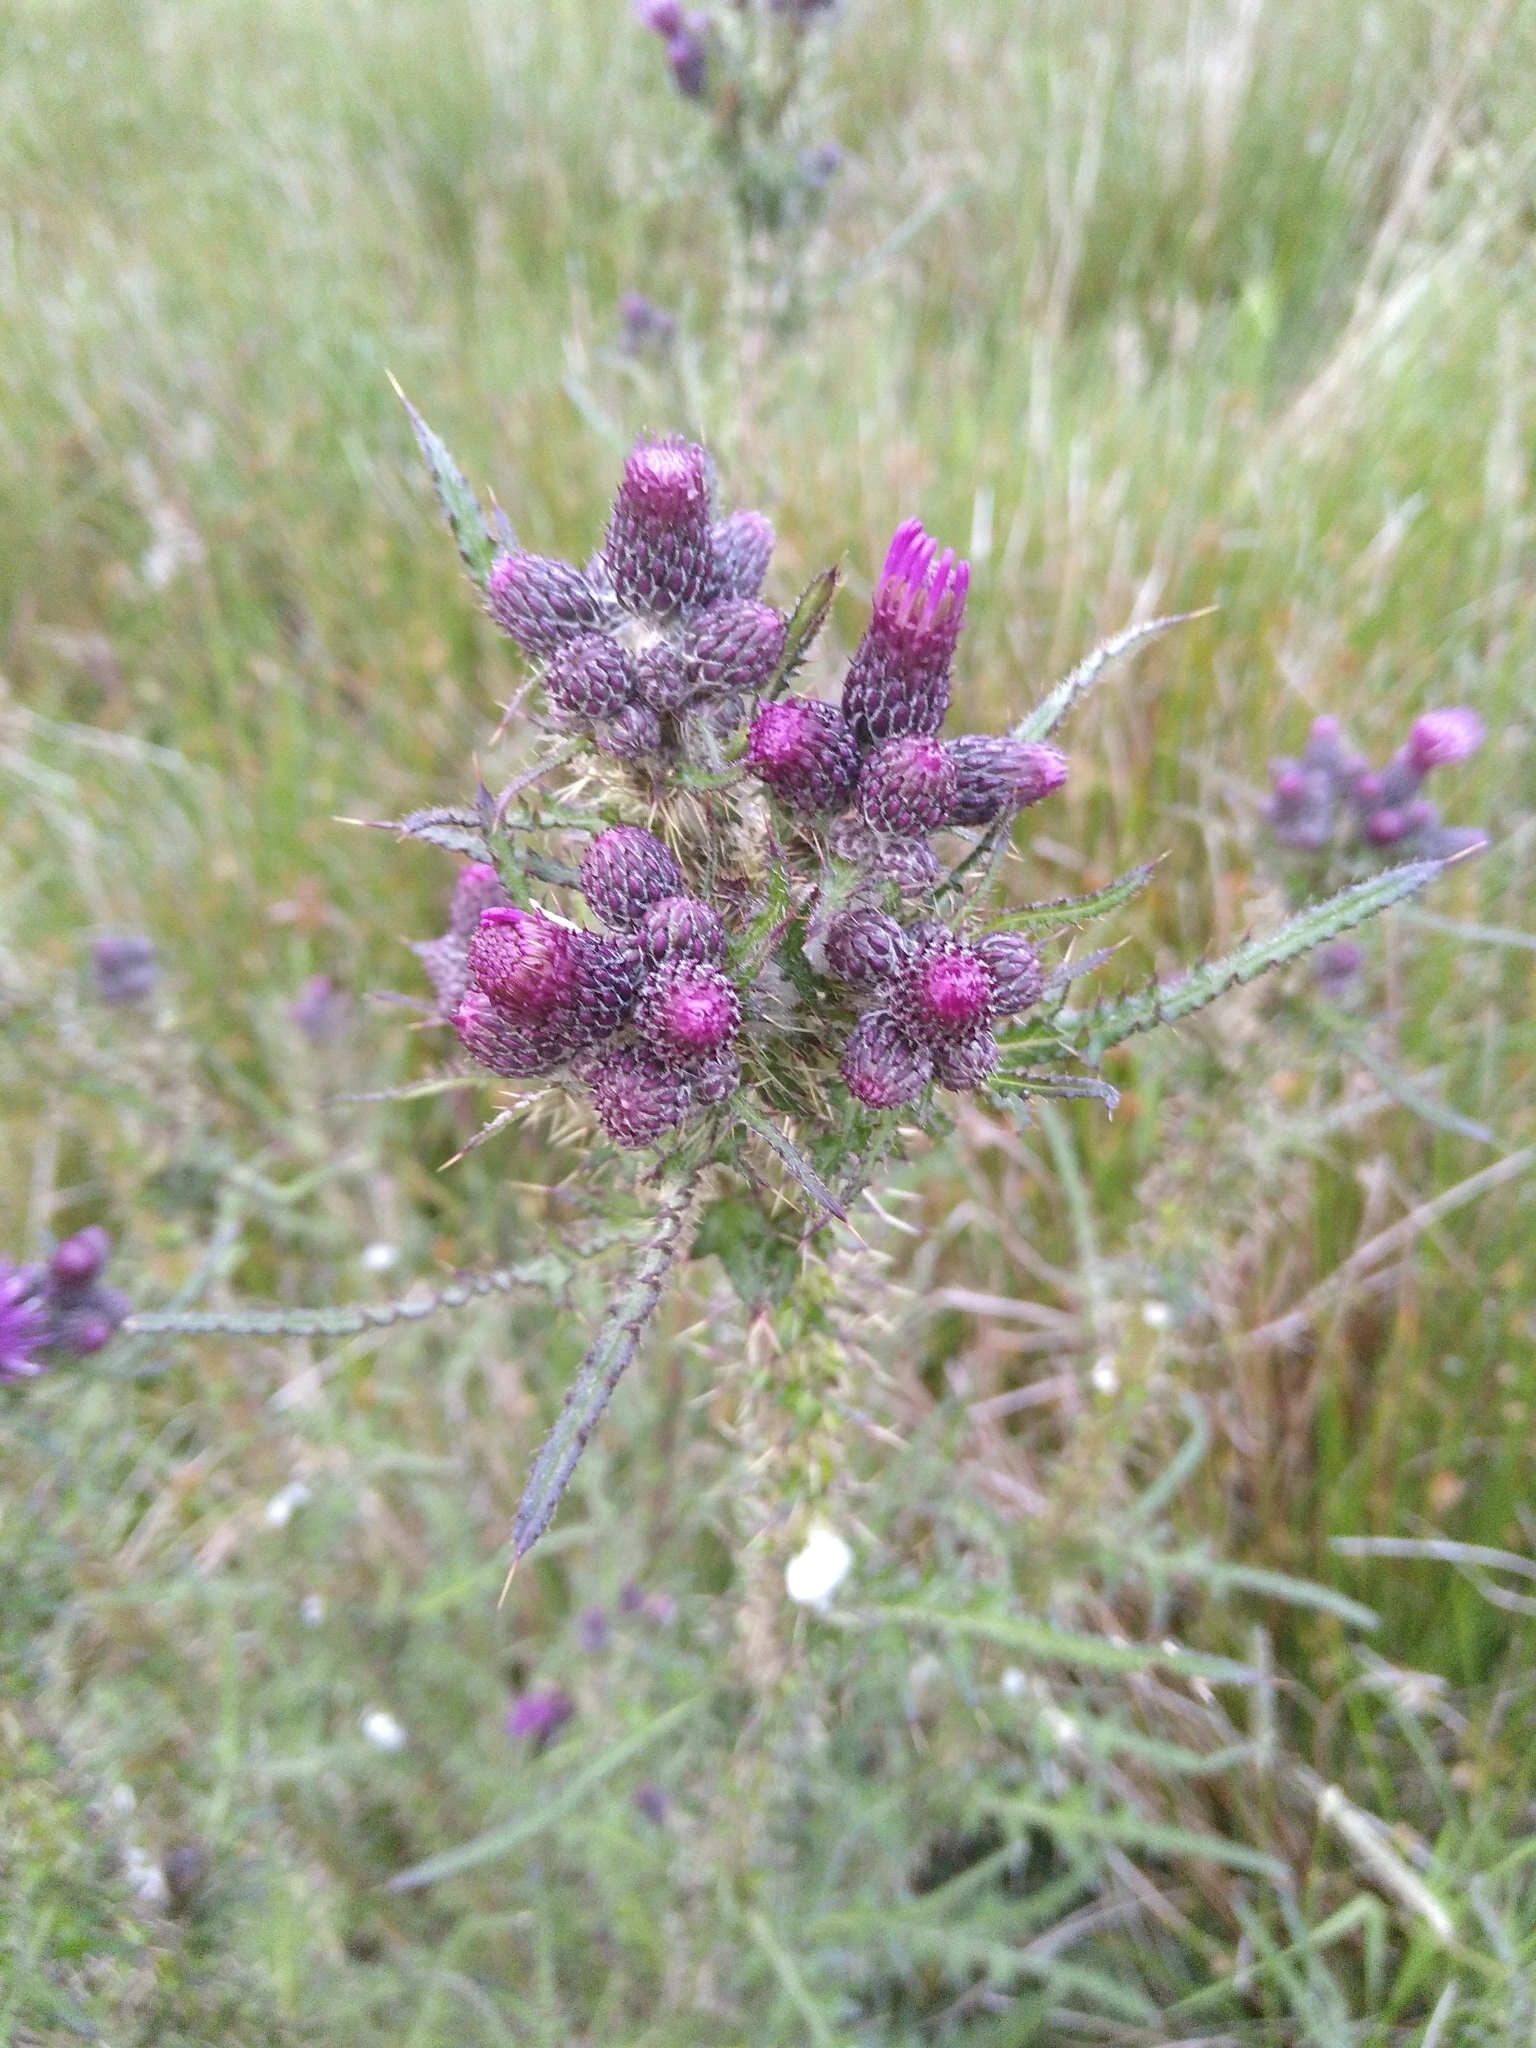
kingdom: Plantae
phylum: Tracheophyta
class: Magnoliopsida
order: Asterales
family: Asteraceae
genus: Cirsium
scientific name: Cirsium palustre
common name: Marsh thistle
